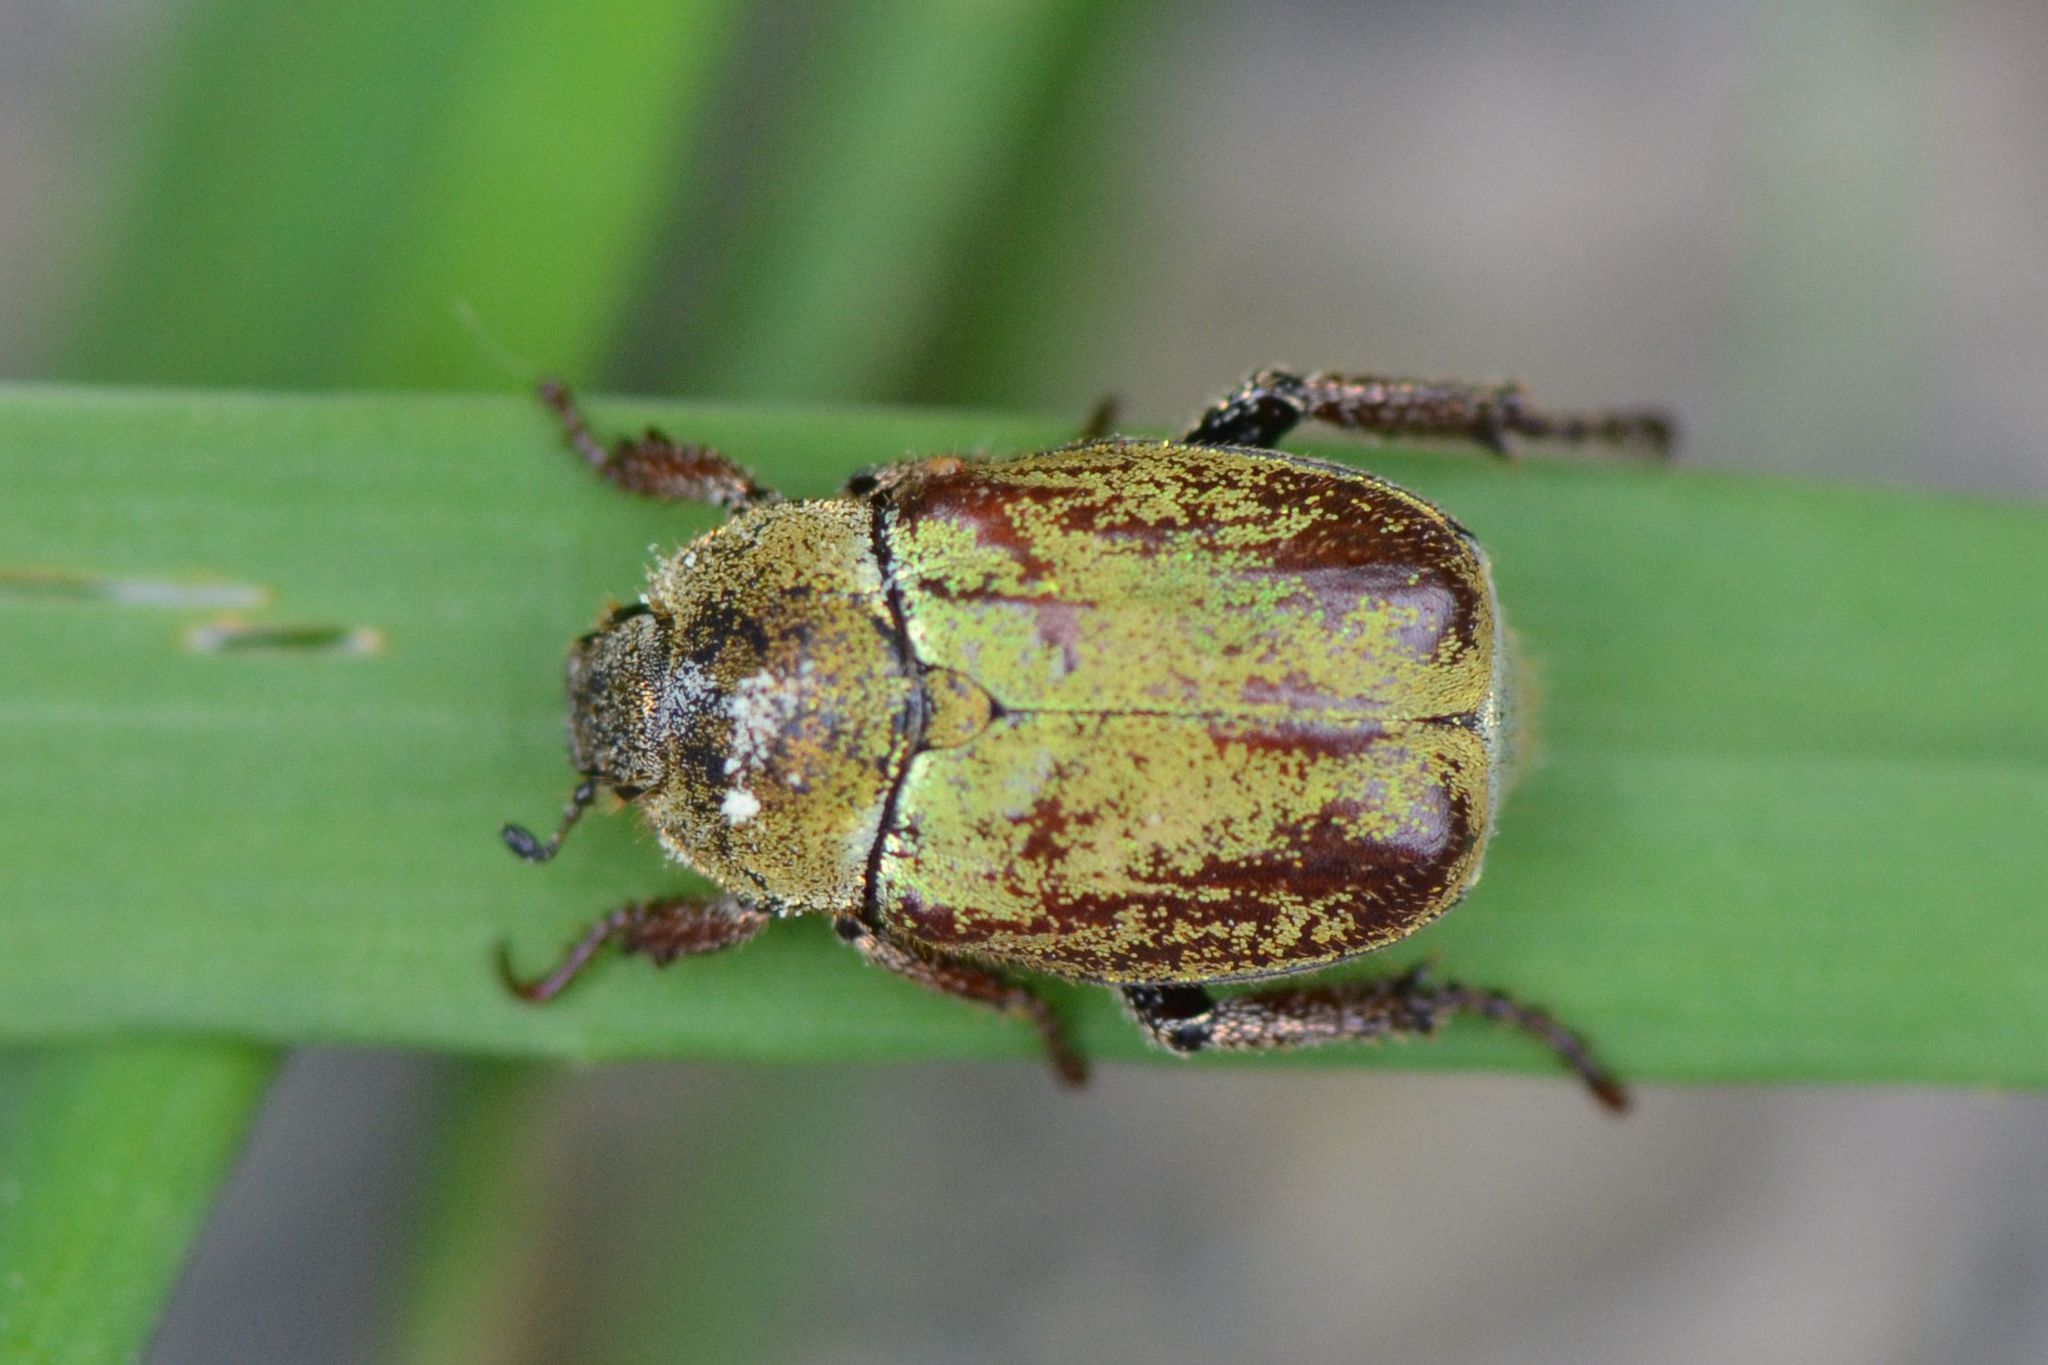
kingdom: Animalia
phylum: Arthropoda
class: Insecta
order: Coleoptera
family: Scarabaeidae
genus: Hoplia
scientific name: Hoplia argentea
